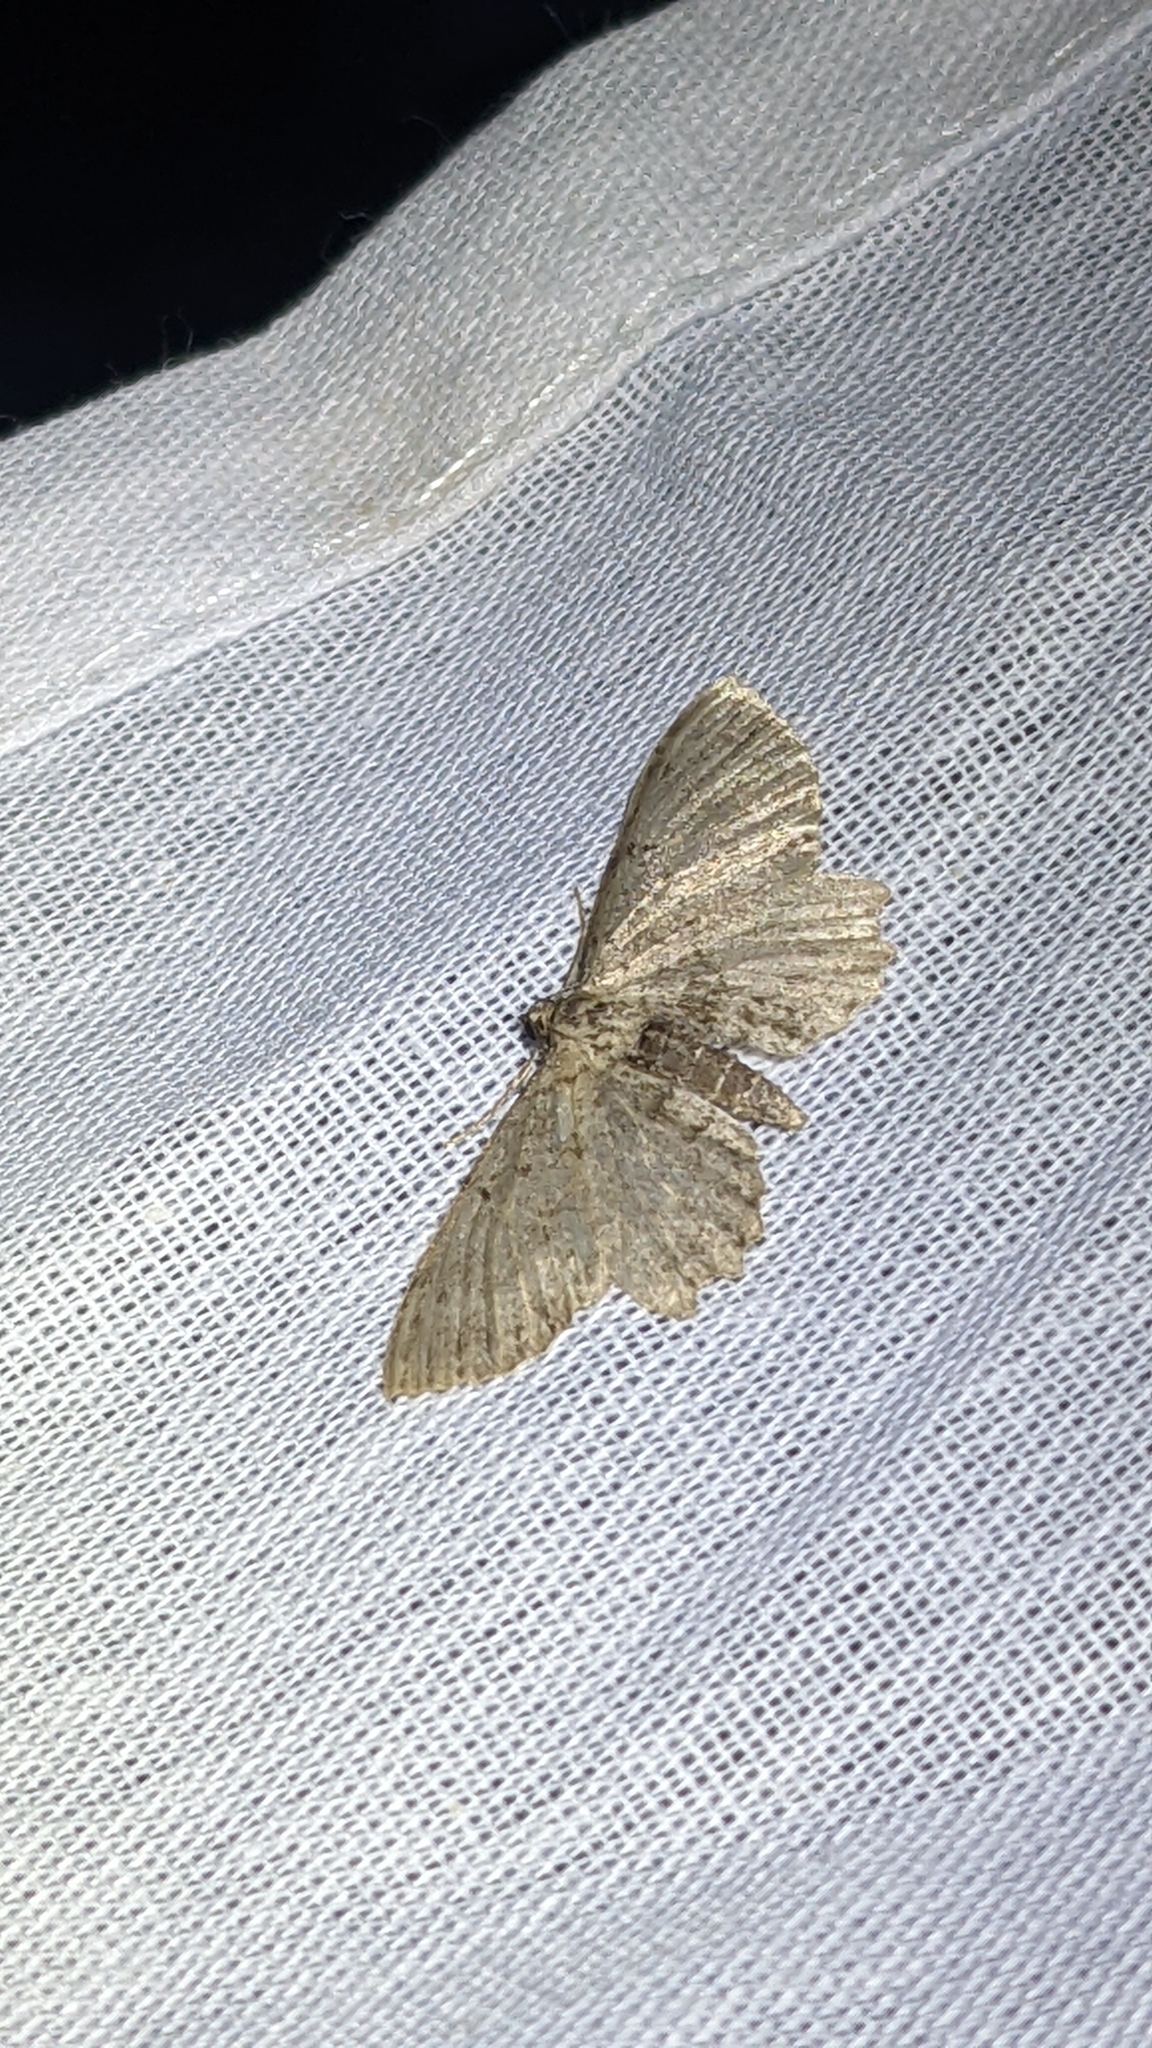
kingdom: Animalia
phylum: Arthropoda
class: Insecta
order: Lepidoptera
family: Geometridae
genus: Anticollix
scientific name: Anticollix sparsata
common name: Dentated pug
